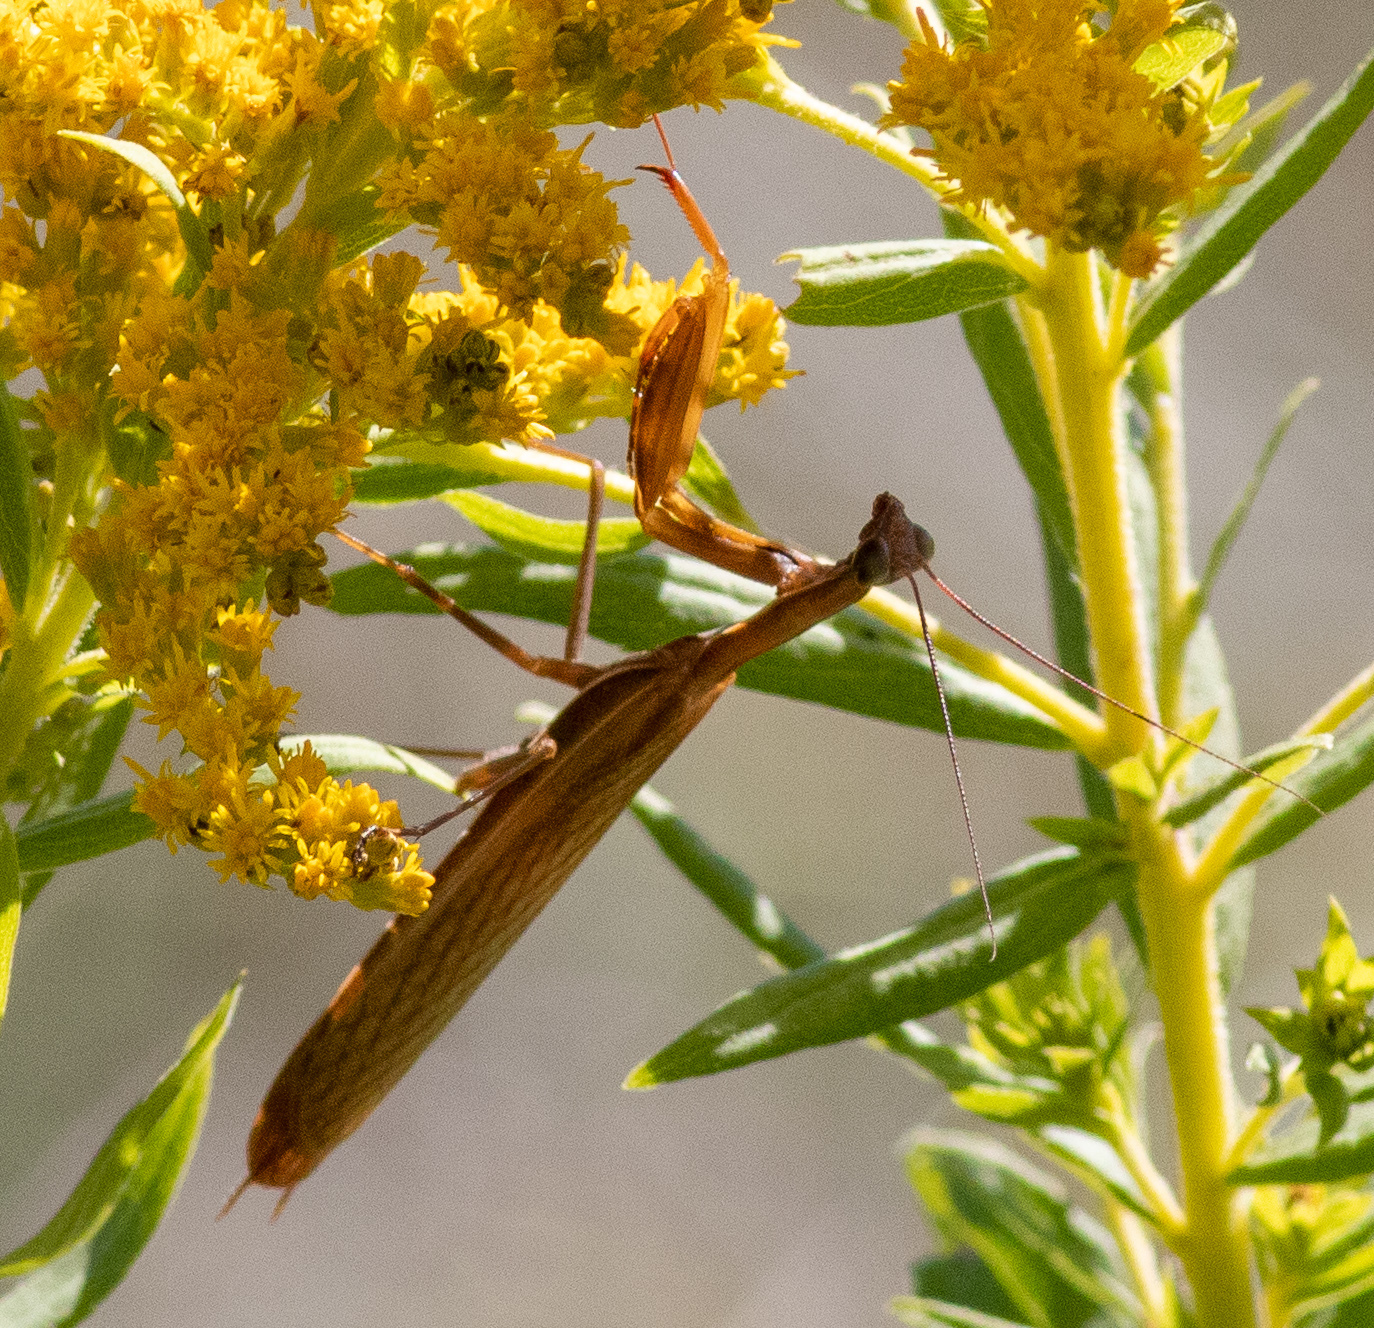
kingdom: Animalia
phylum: Arthropoda
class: Insecta
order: Mantodea
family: Mantidae
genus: Mantis
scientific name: Mantis religiosa
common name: Praying mantis
